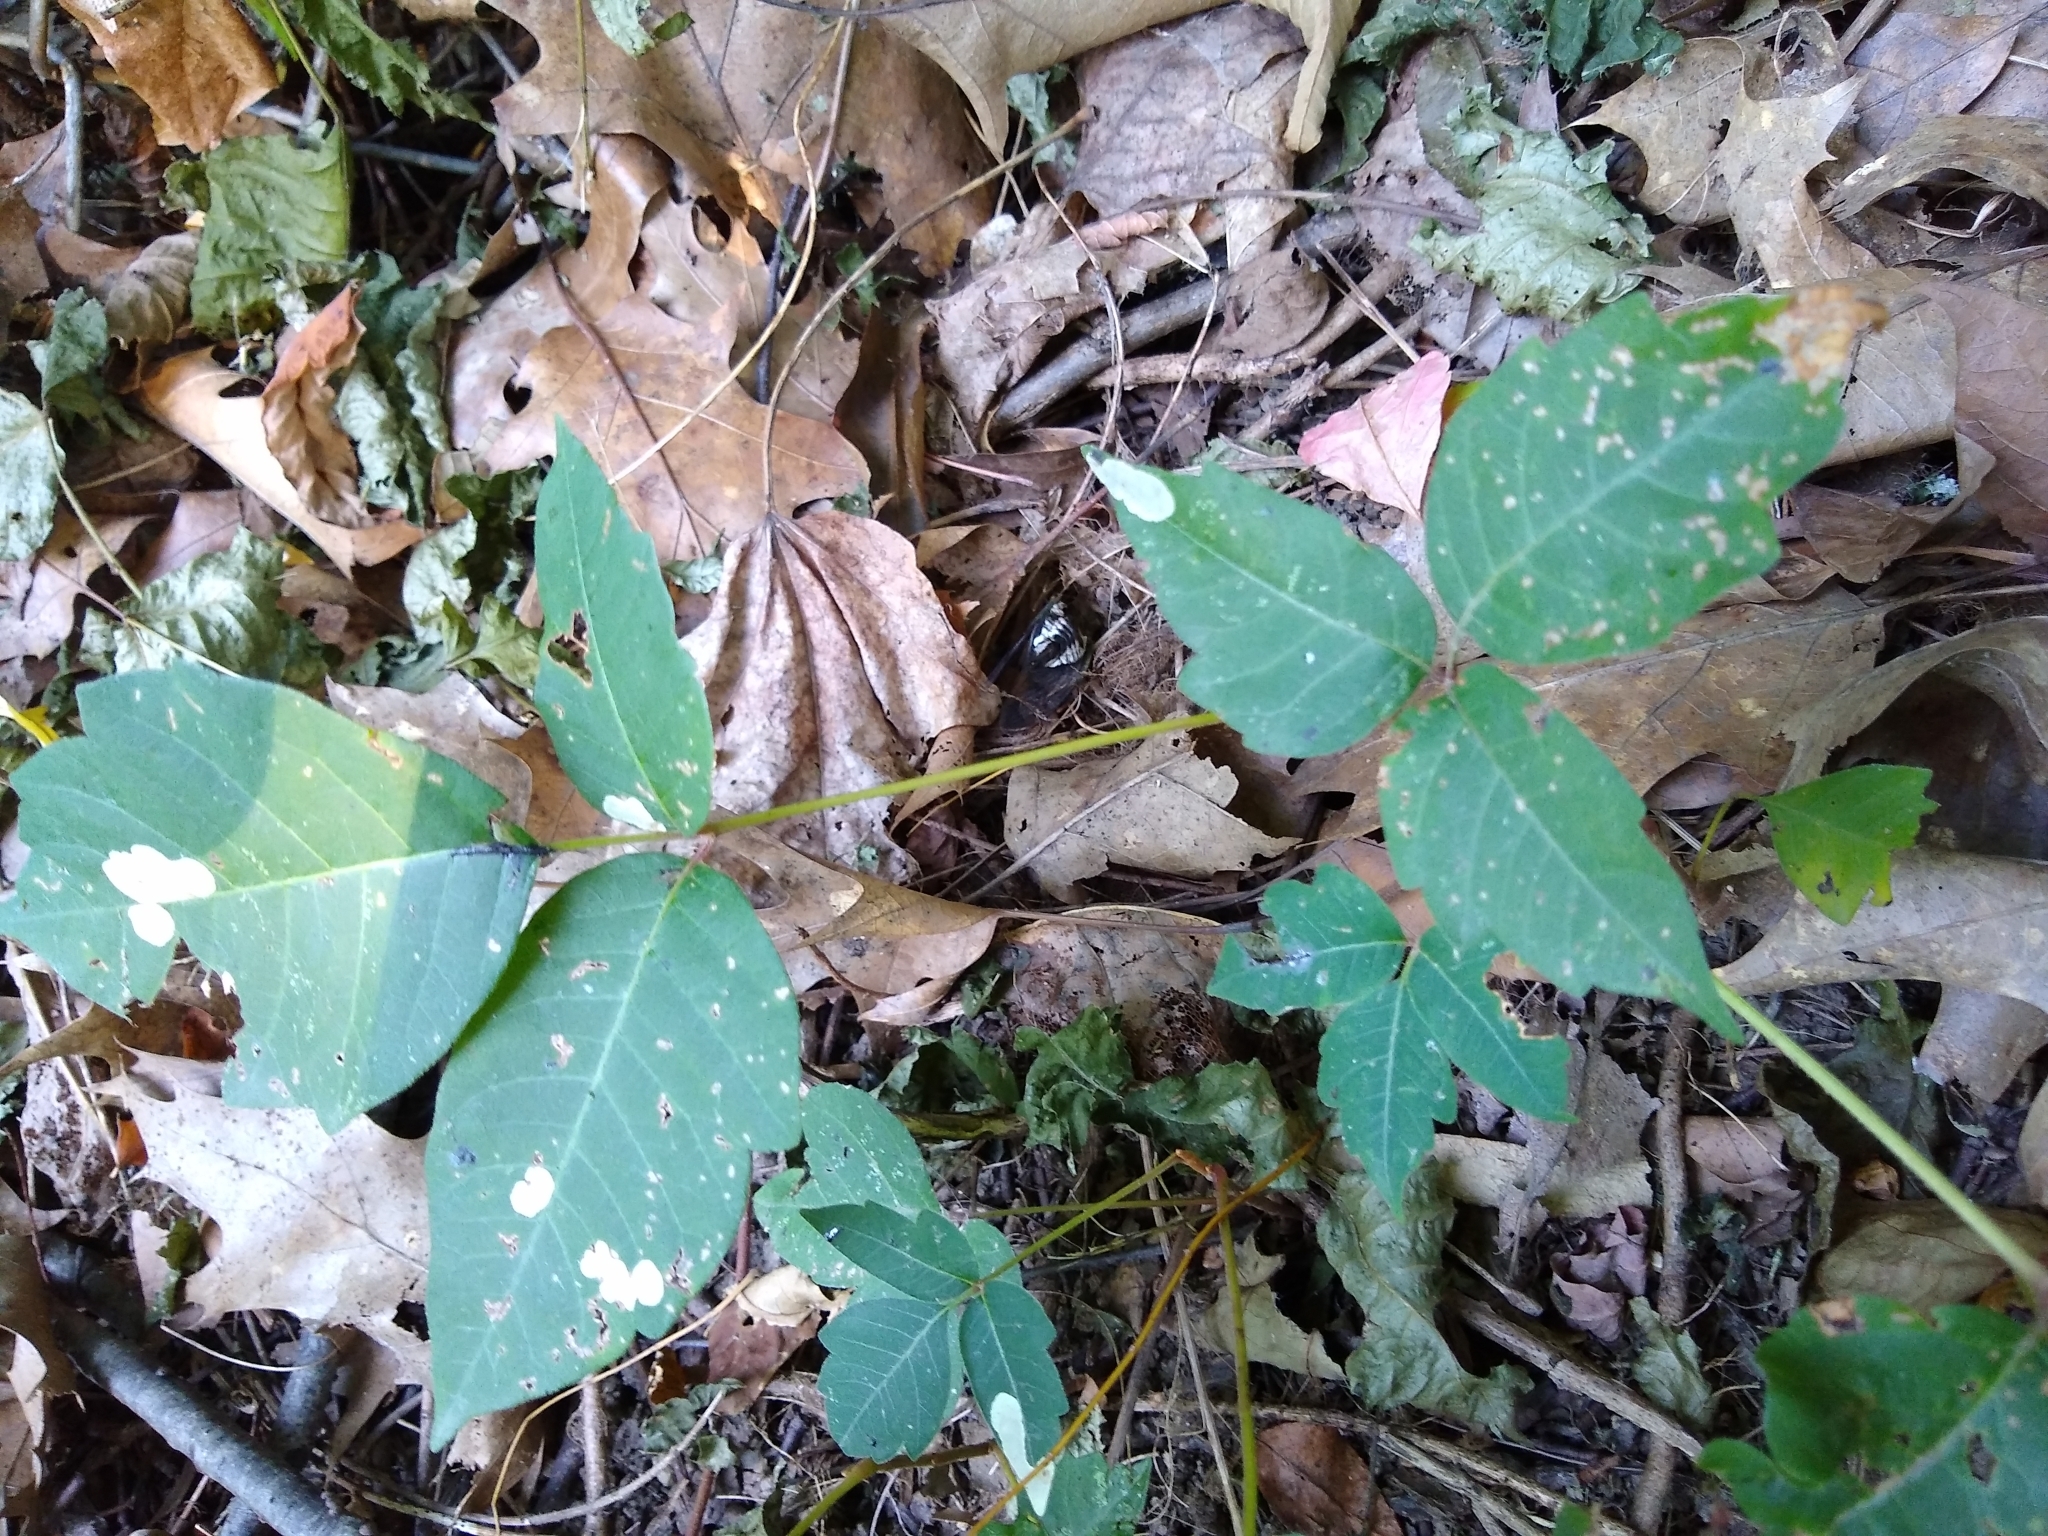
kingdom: Plantae
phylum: Tracheophyta
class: Magnoliopsida
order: Sapindales
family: Anacardiaceae
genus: Toxicodendron
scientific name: Toxicodendron radicans
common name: Poison ivy
